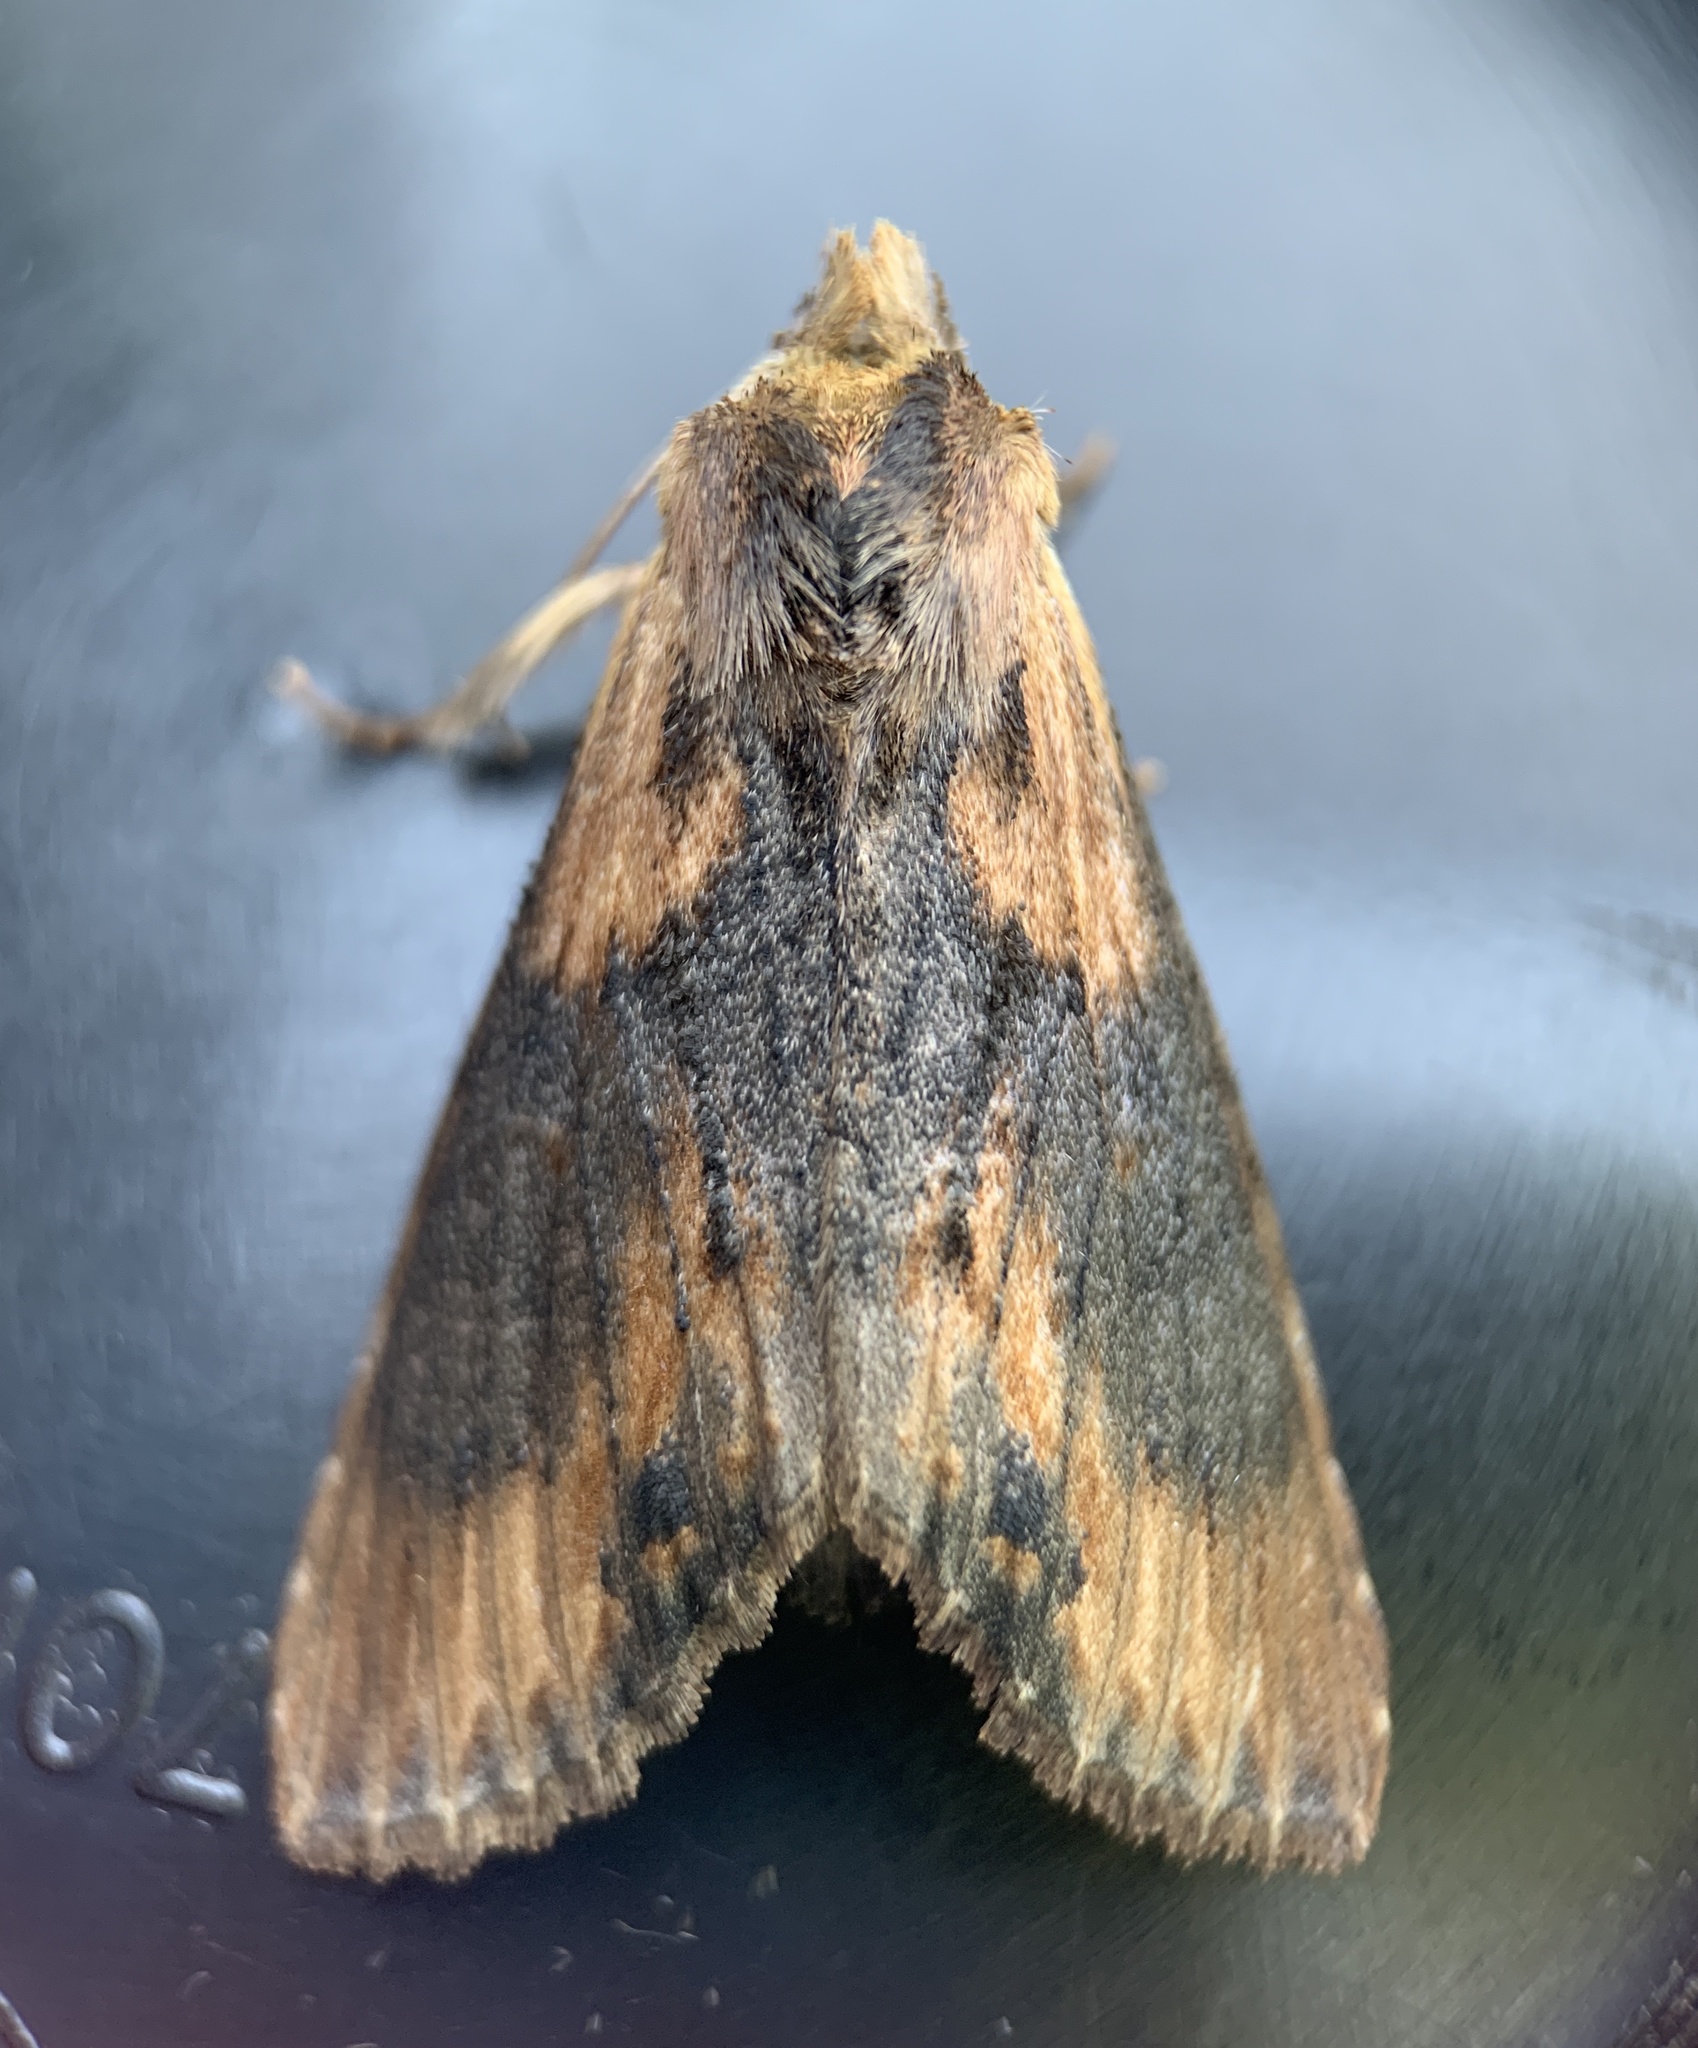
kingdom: Animalia
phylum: Arthropoda
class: Insecta
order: Lepidoptera
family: Notodontidae
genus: Dasylophia
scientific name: Dasylophia thyatiroides
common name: Gray-patched prominent
